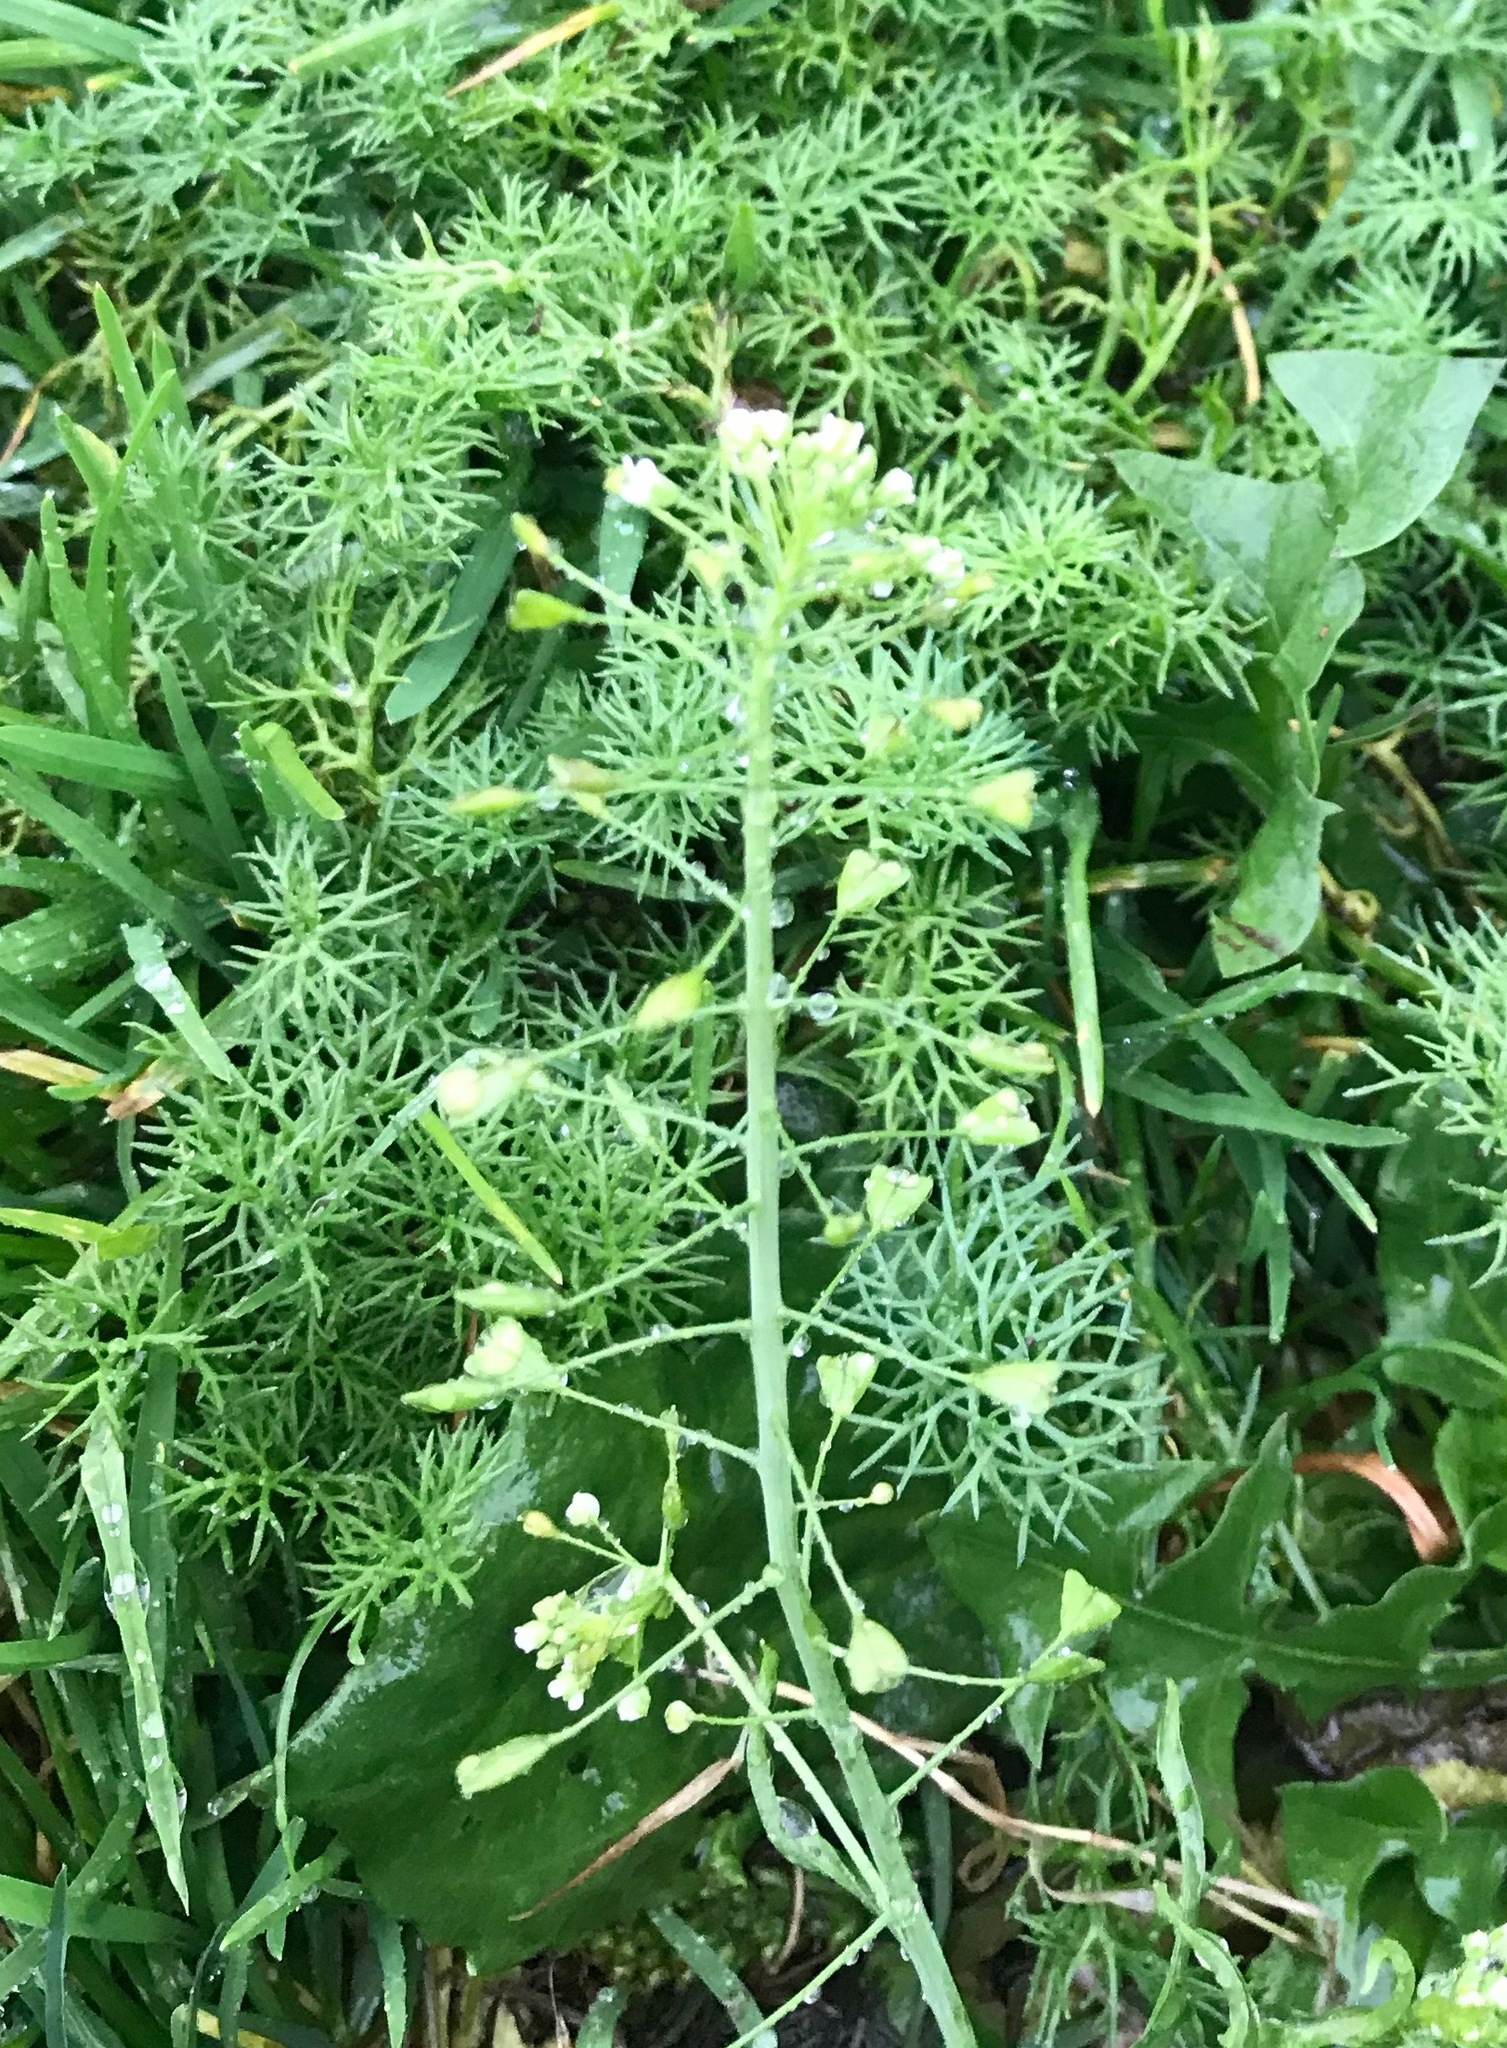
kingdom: Plantae
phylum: Tracheophyta
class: Magnoliopsida
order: Brassicales
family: Brassicaceae
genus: Capsella
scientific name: Capsella bursa-pastoris
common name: Shepherd's purse
